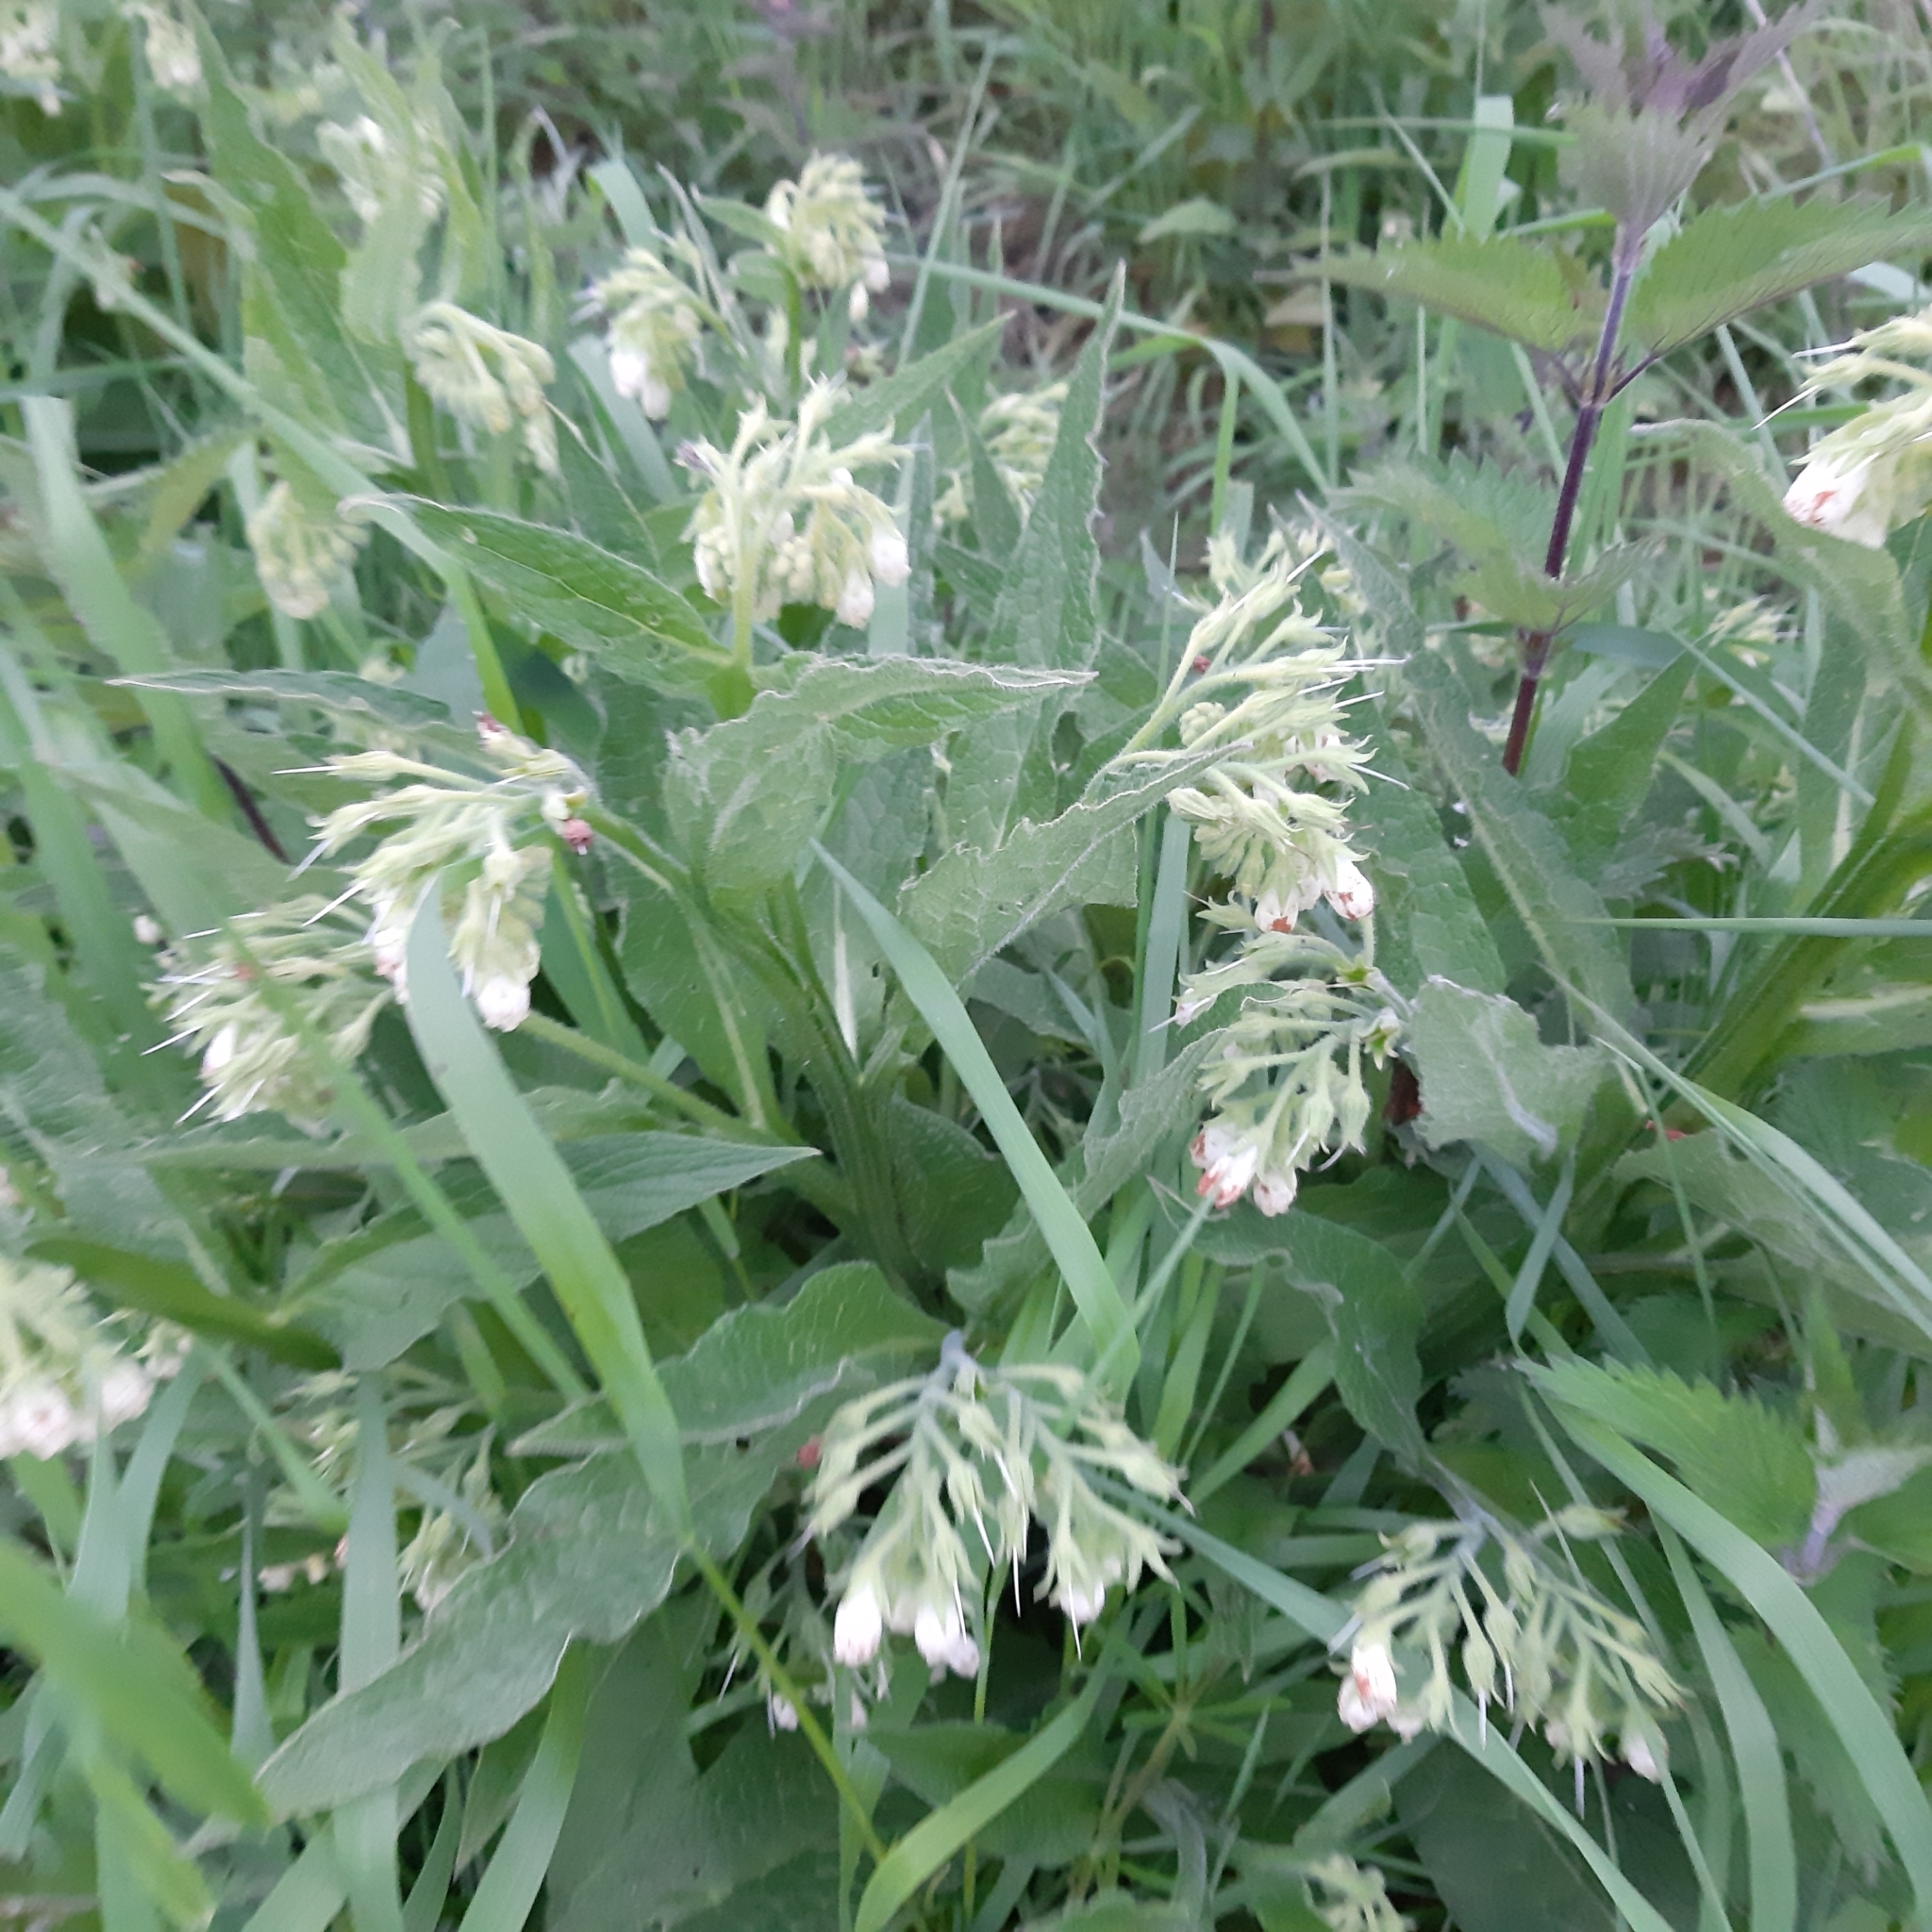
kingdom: Plantae
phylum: Tracheophyta
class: Magnoliopsida
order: Boraginales
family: Boraginaceae
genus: Symphytum
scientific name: Symphytum officinale
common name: Common comfrey
